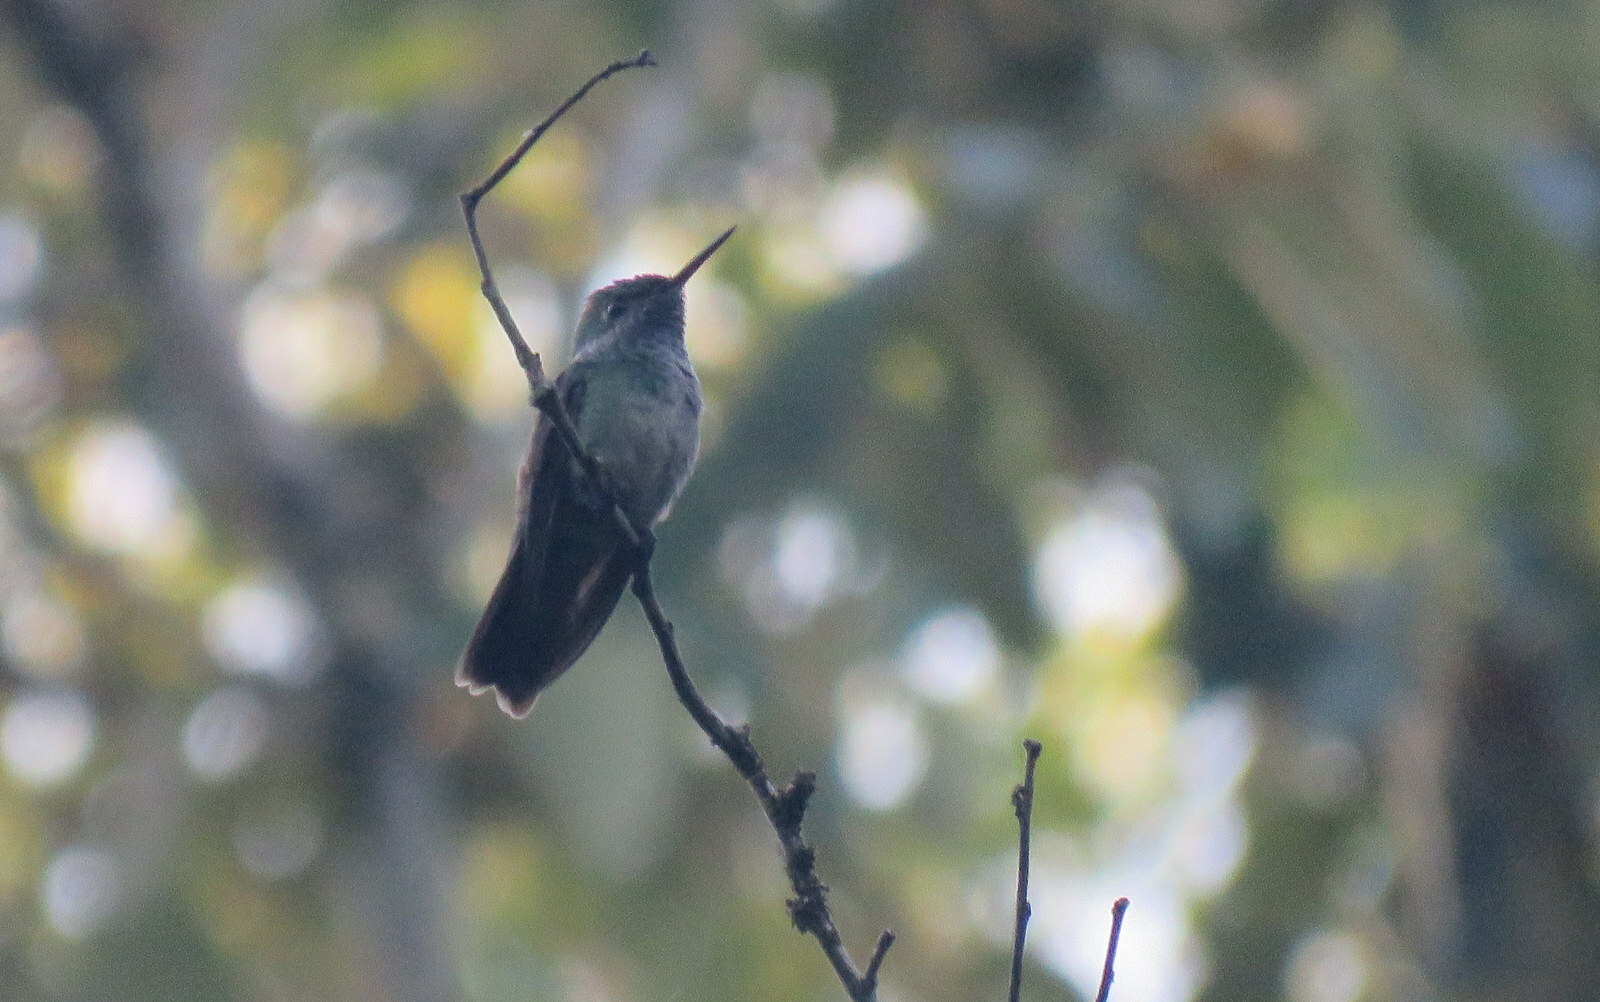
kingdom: Animalia
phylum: Chordata
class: Aves
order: Apodiformes
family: Trochilidae
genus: Chrysuronia
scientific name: Chrysuronia versicolor
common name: Versicolored emerald
